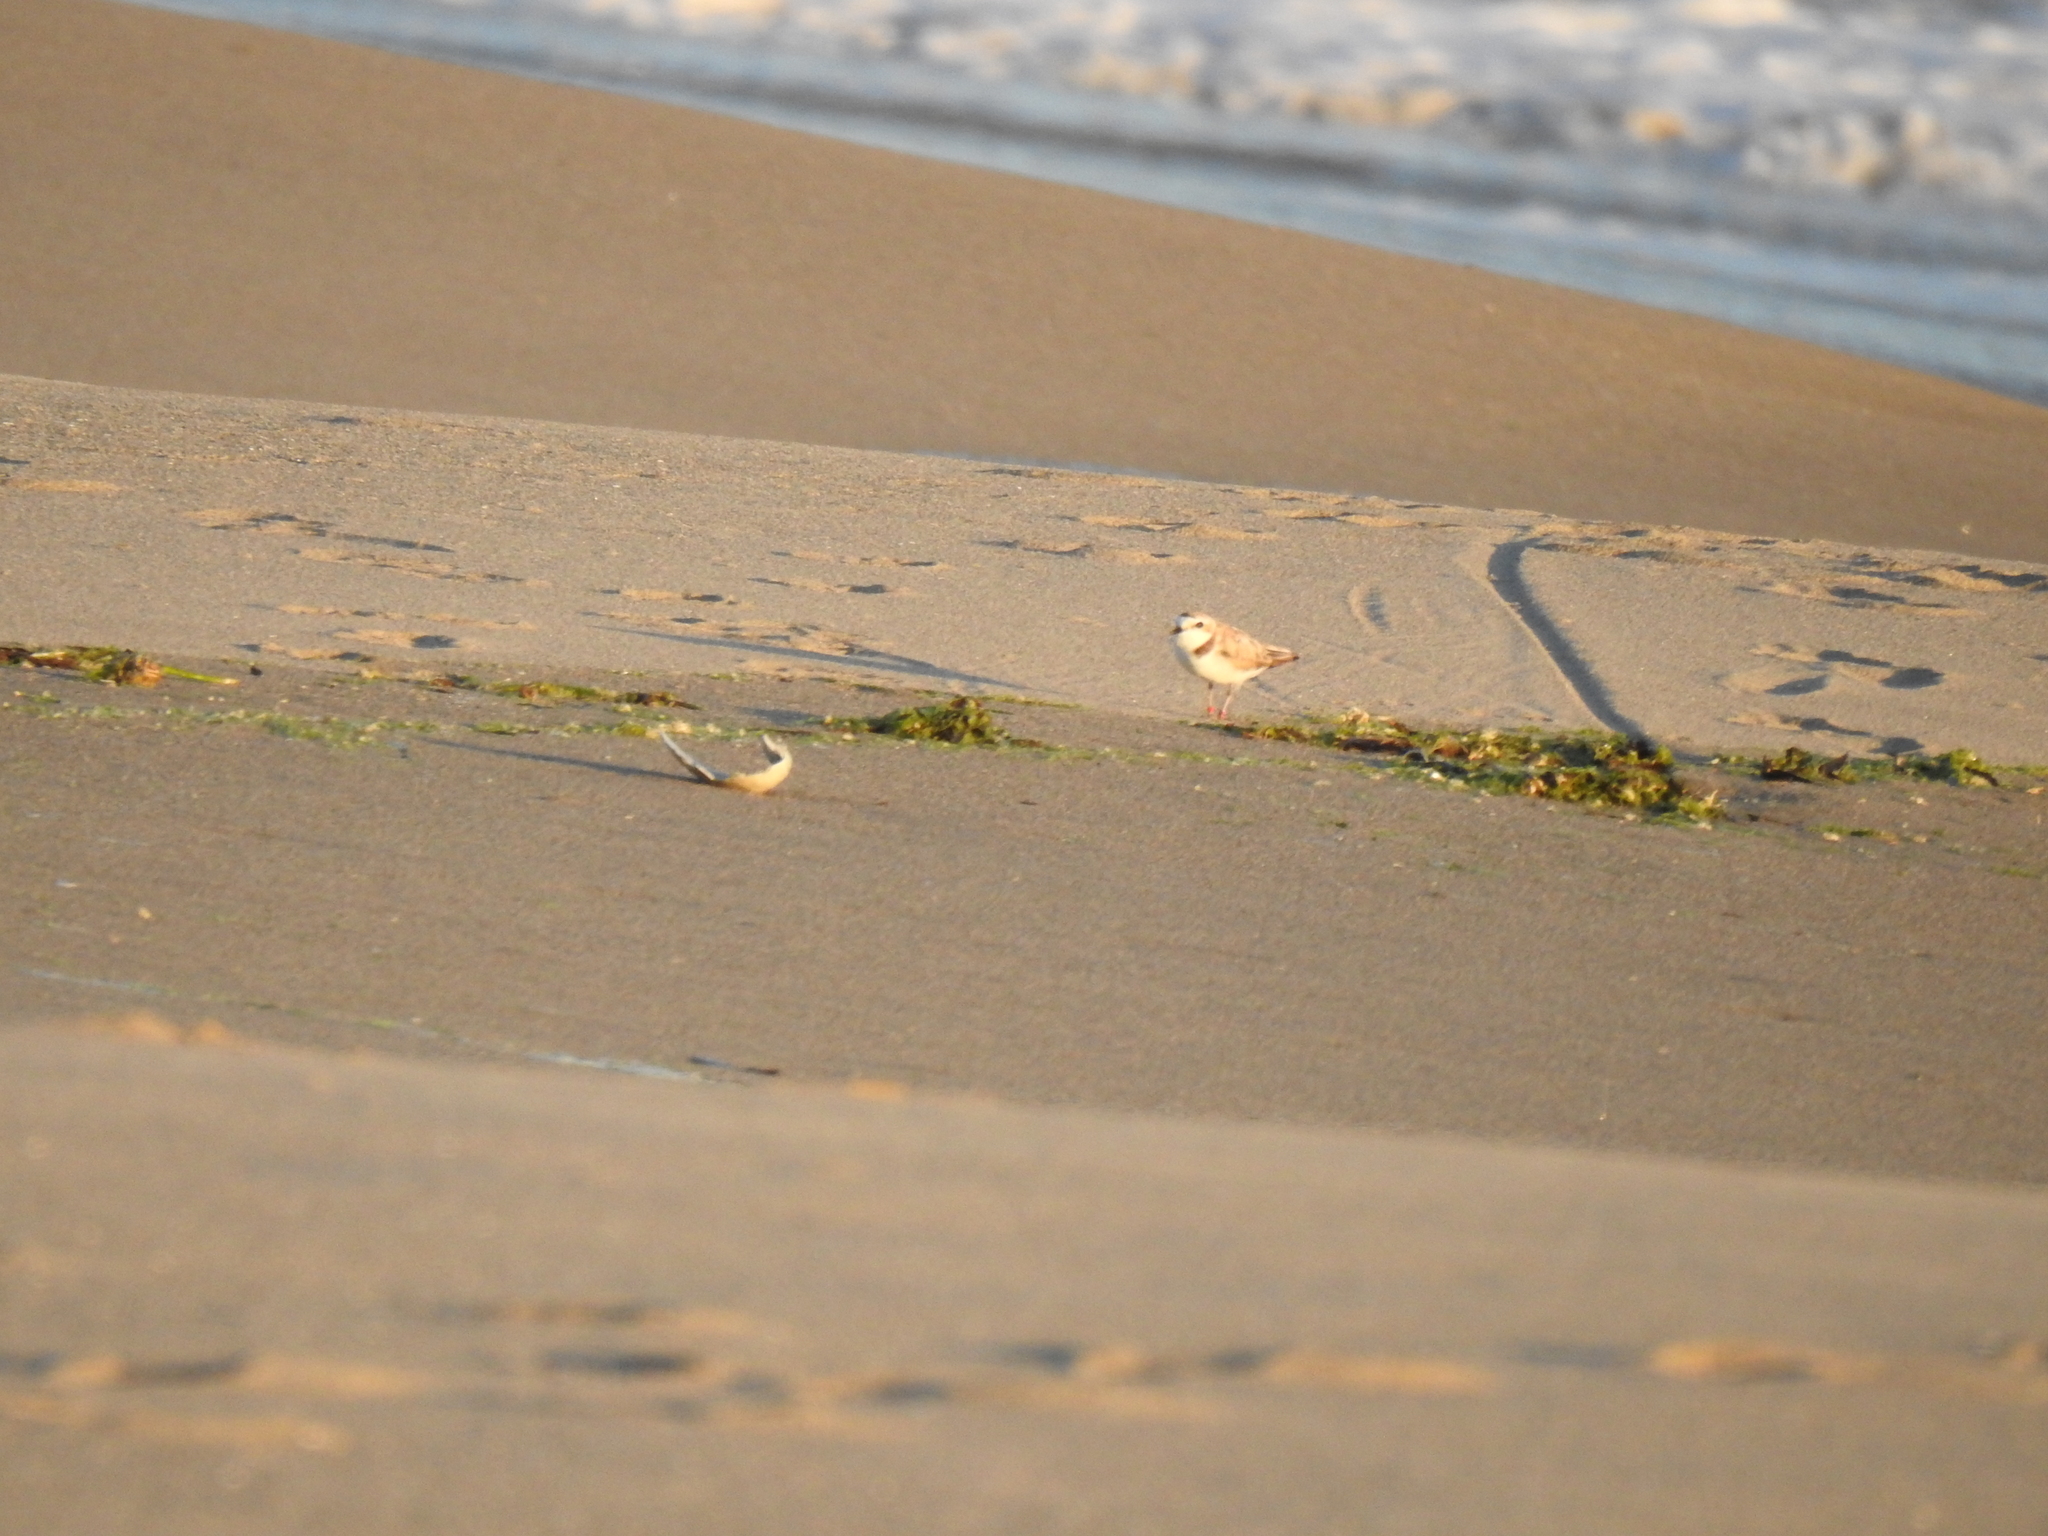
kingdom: Animalia
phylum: Chordata
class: Aves
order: Charadriiformes
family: Charadriidae
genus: Anarhynchus
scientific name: Anarhynchus
